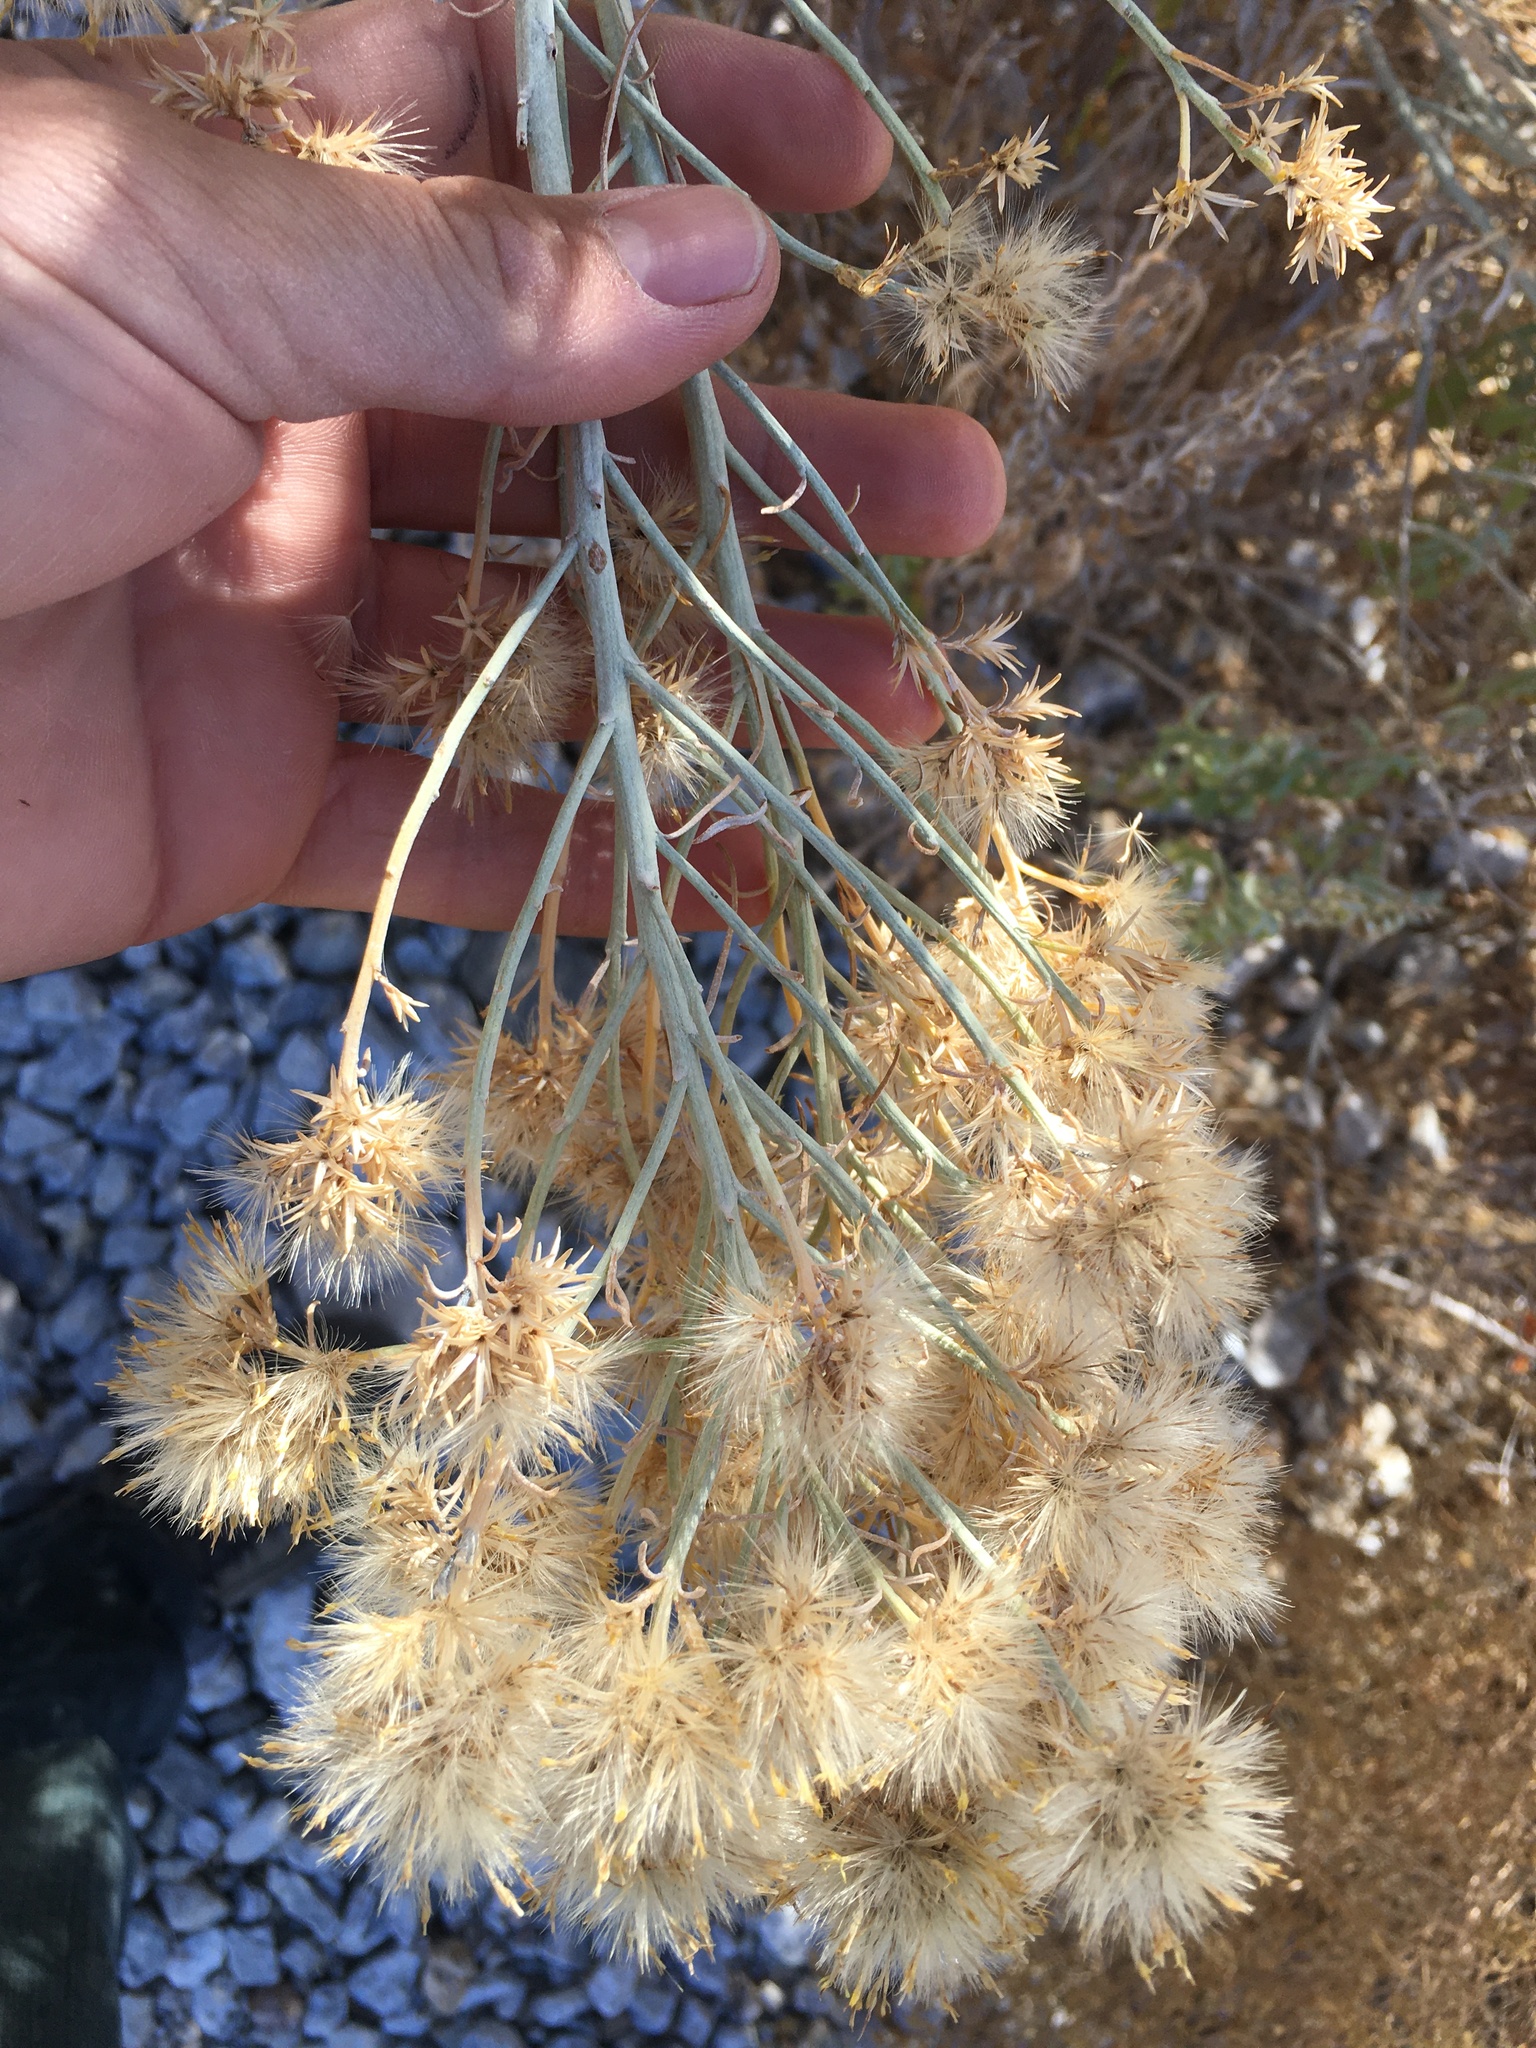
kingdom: Plantae
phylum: Tracheophyta
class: Magnoliopsida
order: Asterales
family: Asteraceae
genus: Ericameria
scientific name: Ericameria nauseosa
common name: Rubber rabbitbrush
